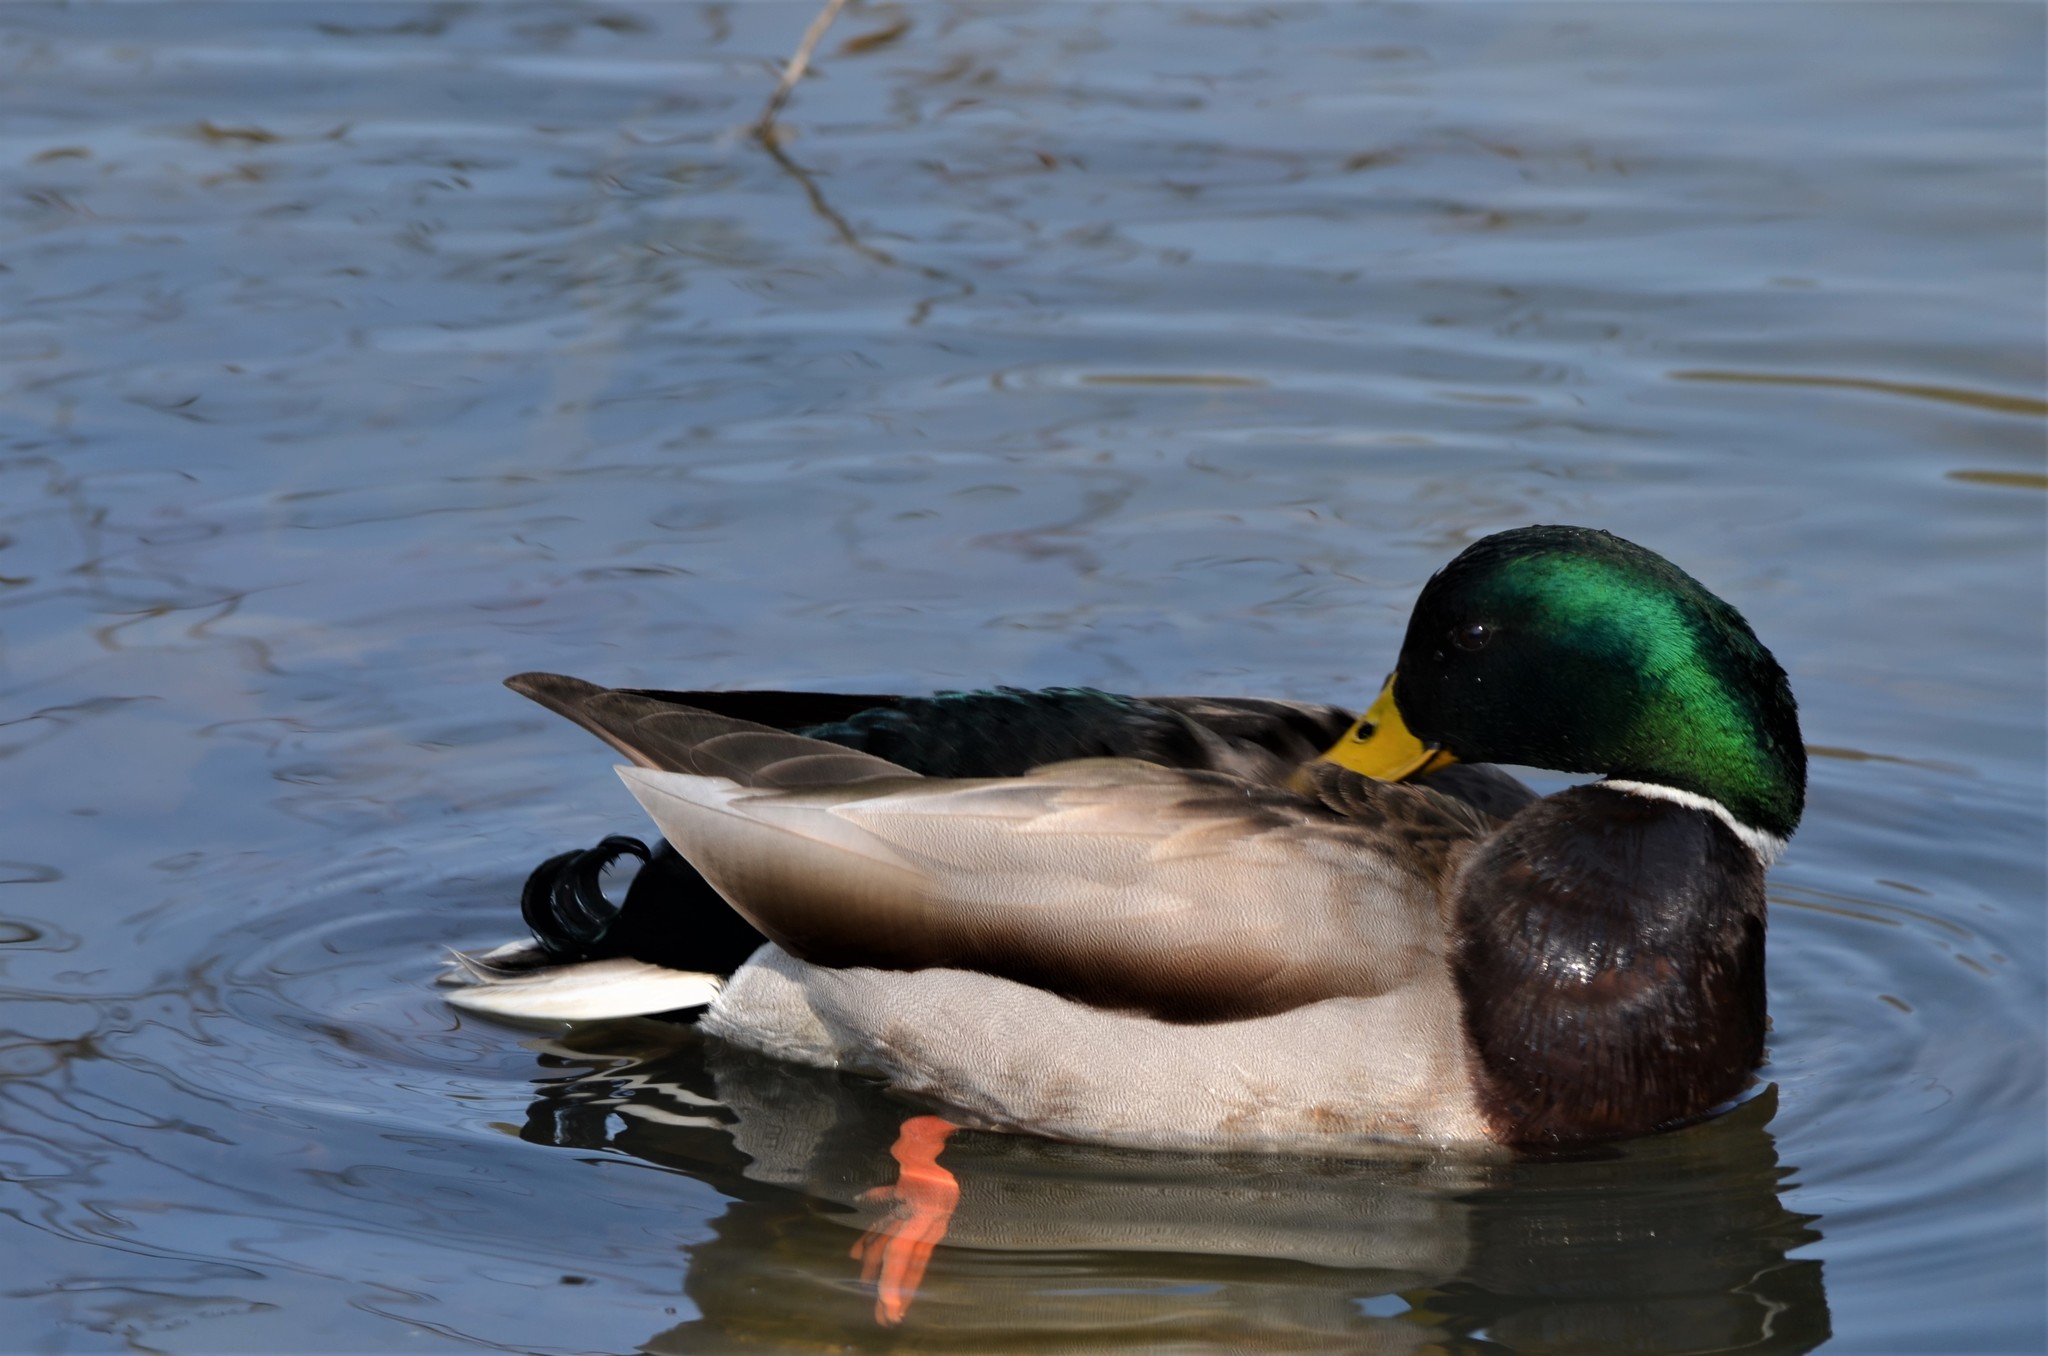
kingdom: Animalia
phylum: Chordata
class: Aves
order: Anseriformes
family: Anatidae
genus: Anas
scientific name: Anas platyrhynchos
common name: Mallard
